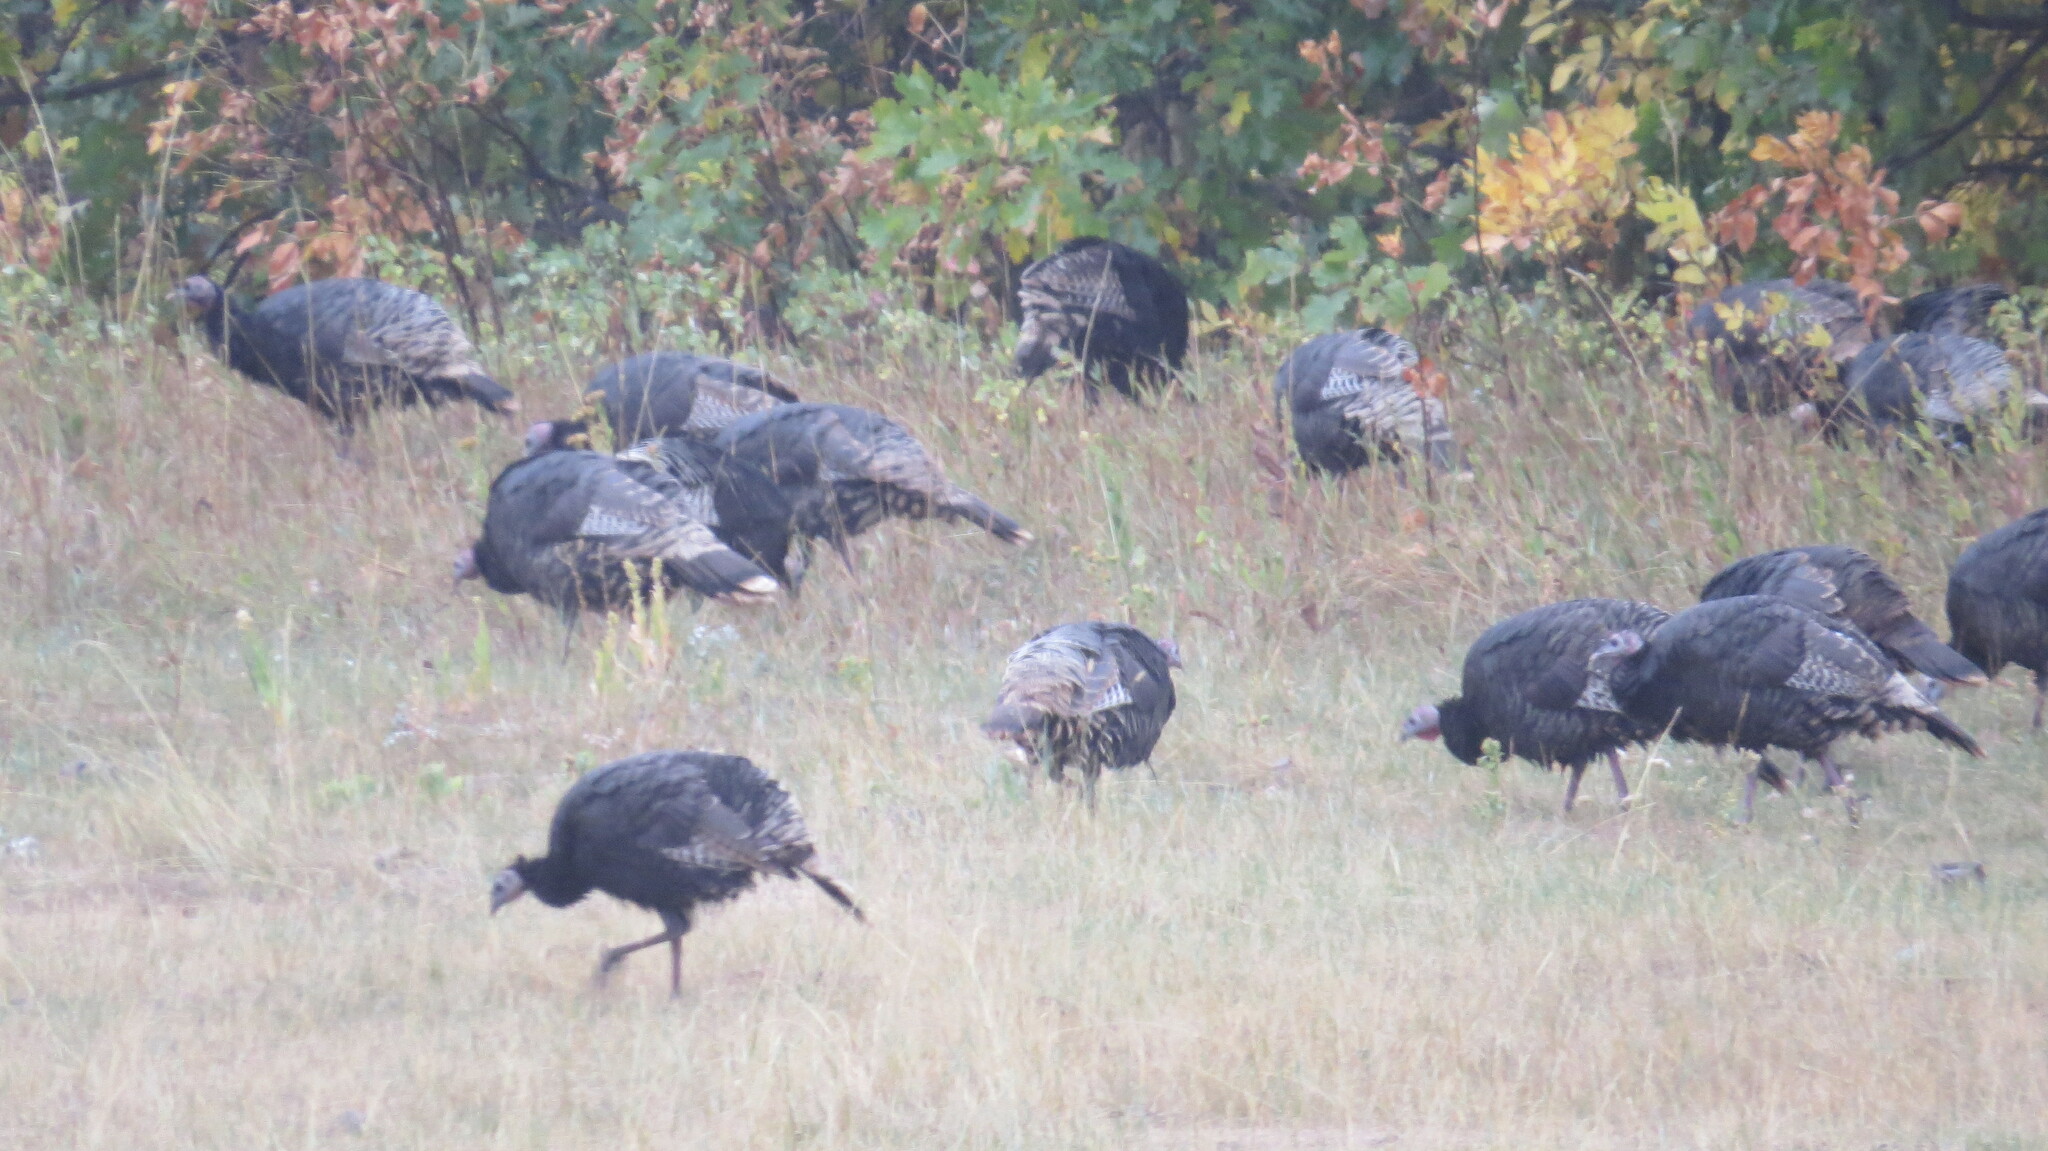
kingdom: Animalia
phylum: Chordata
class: Aves
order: Galliformes
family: Phasianidae
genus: Meleagris
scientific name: Meleagris gallopavo
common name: Wild turkey
